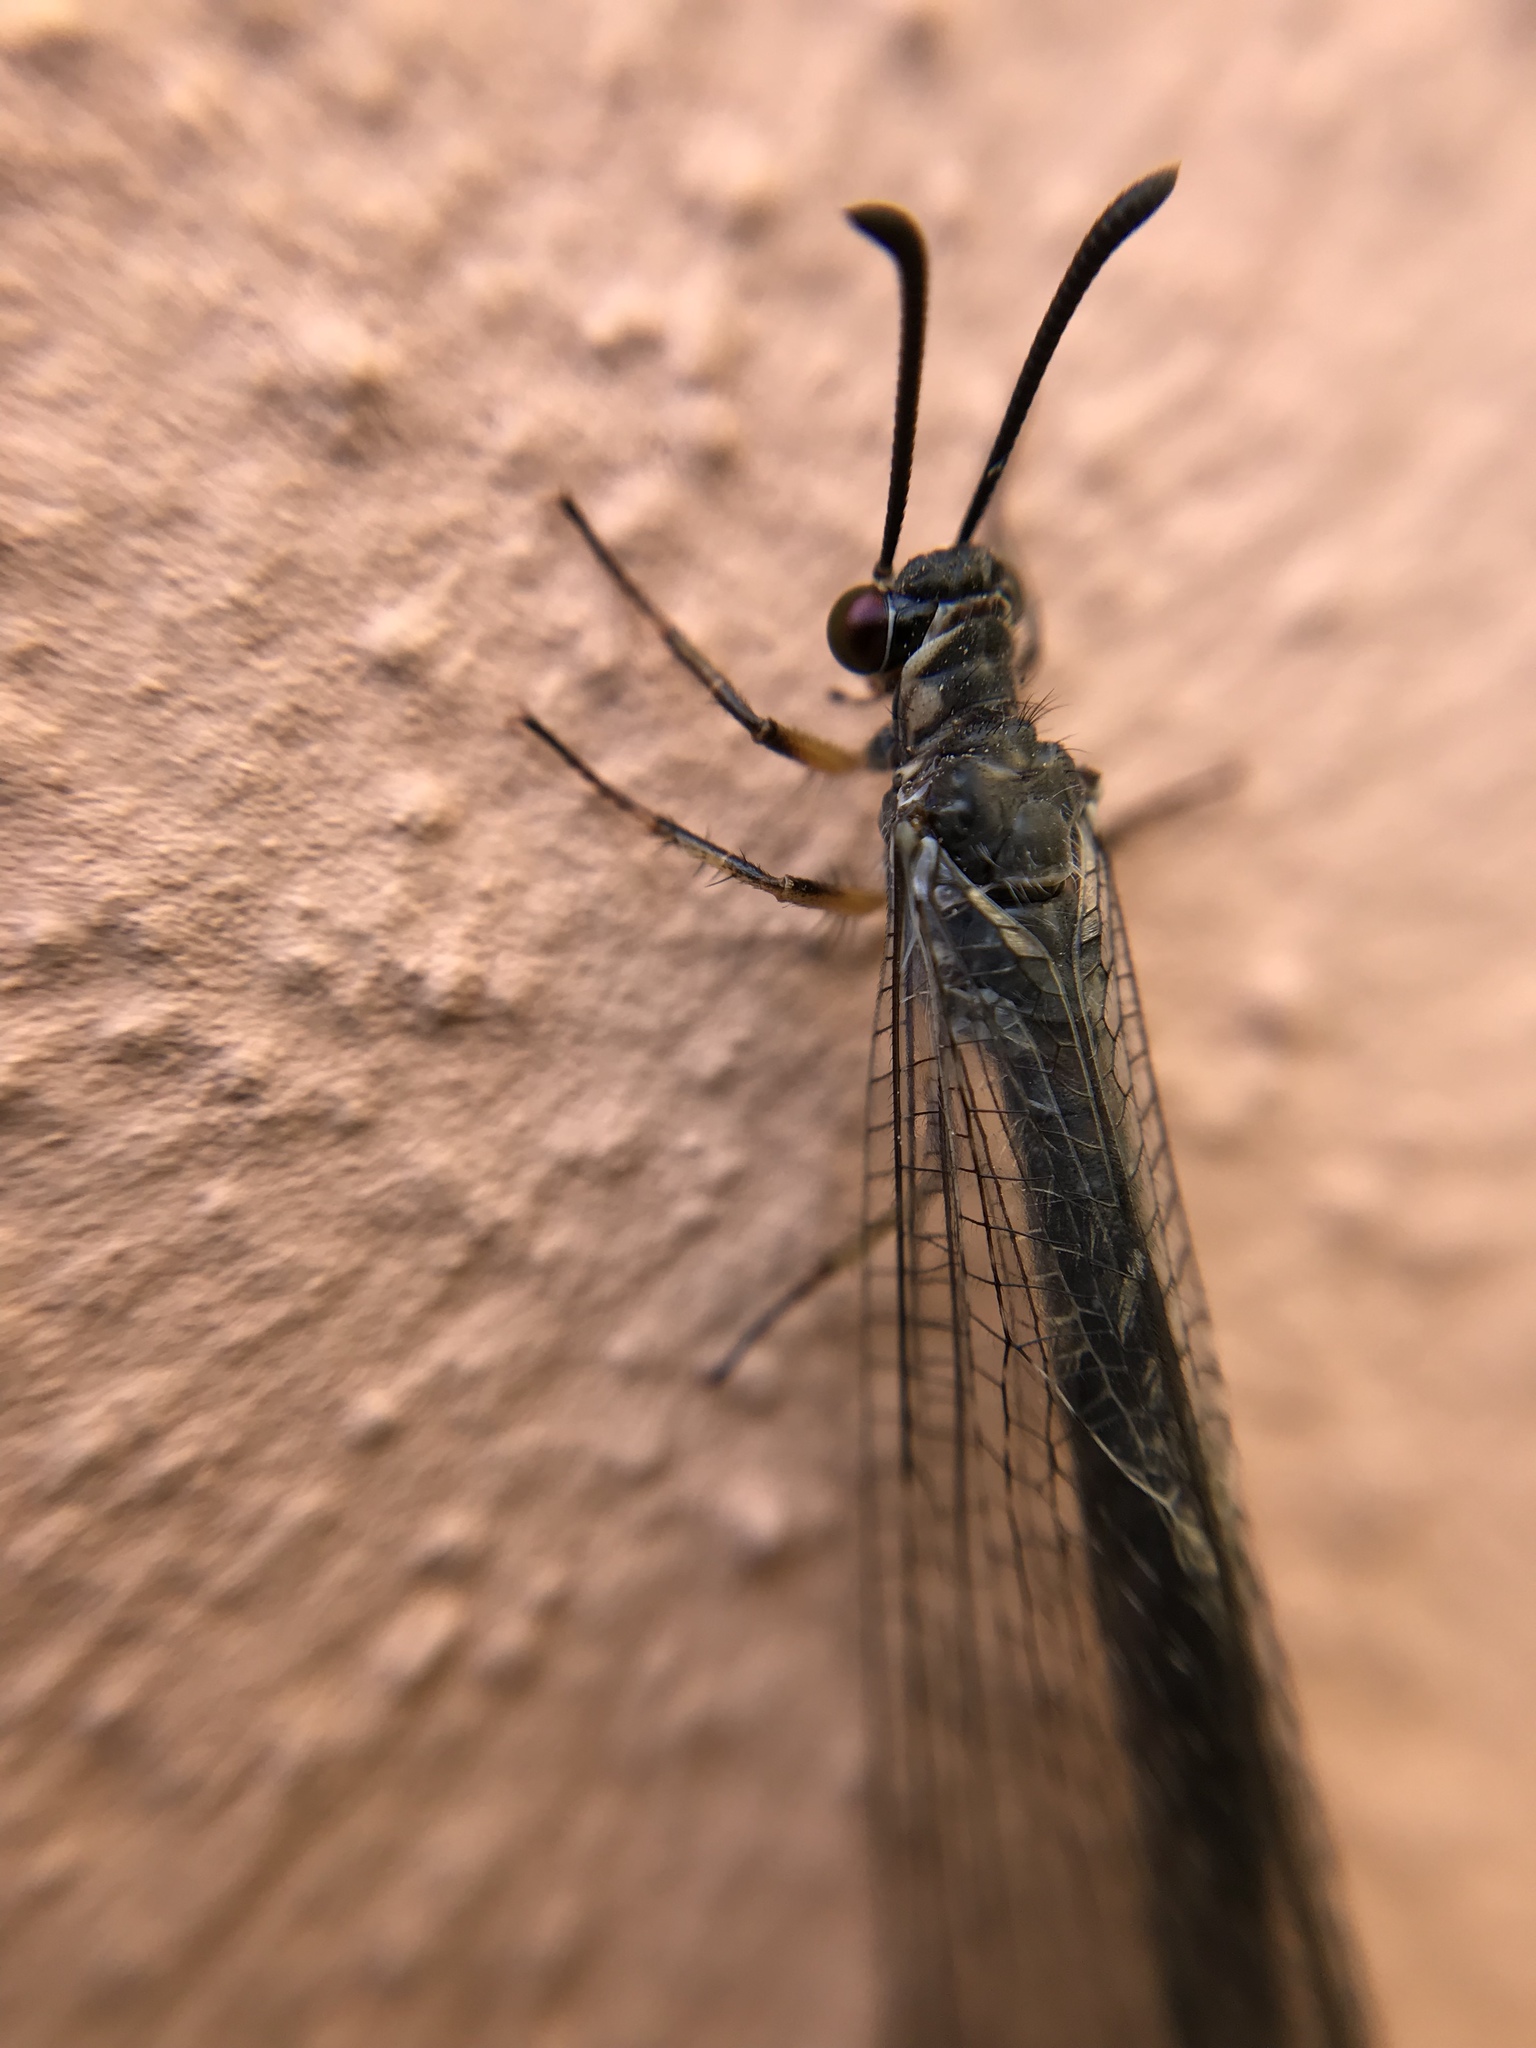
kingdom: Animalia
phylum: Arthropoda
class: Insecta
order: Neuroptera
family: Myrmeleontidae
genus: Myrmeleon
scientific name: Myrmeleon formicarius
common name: Ant-lion
